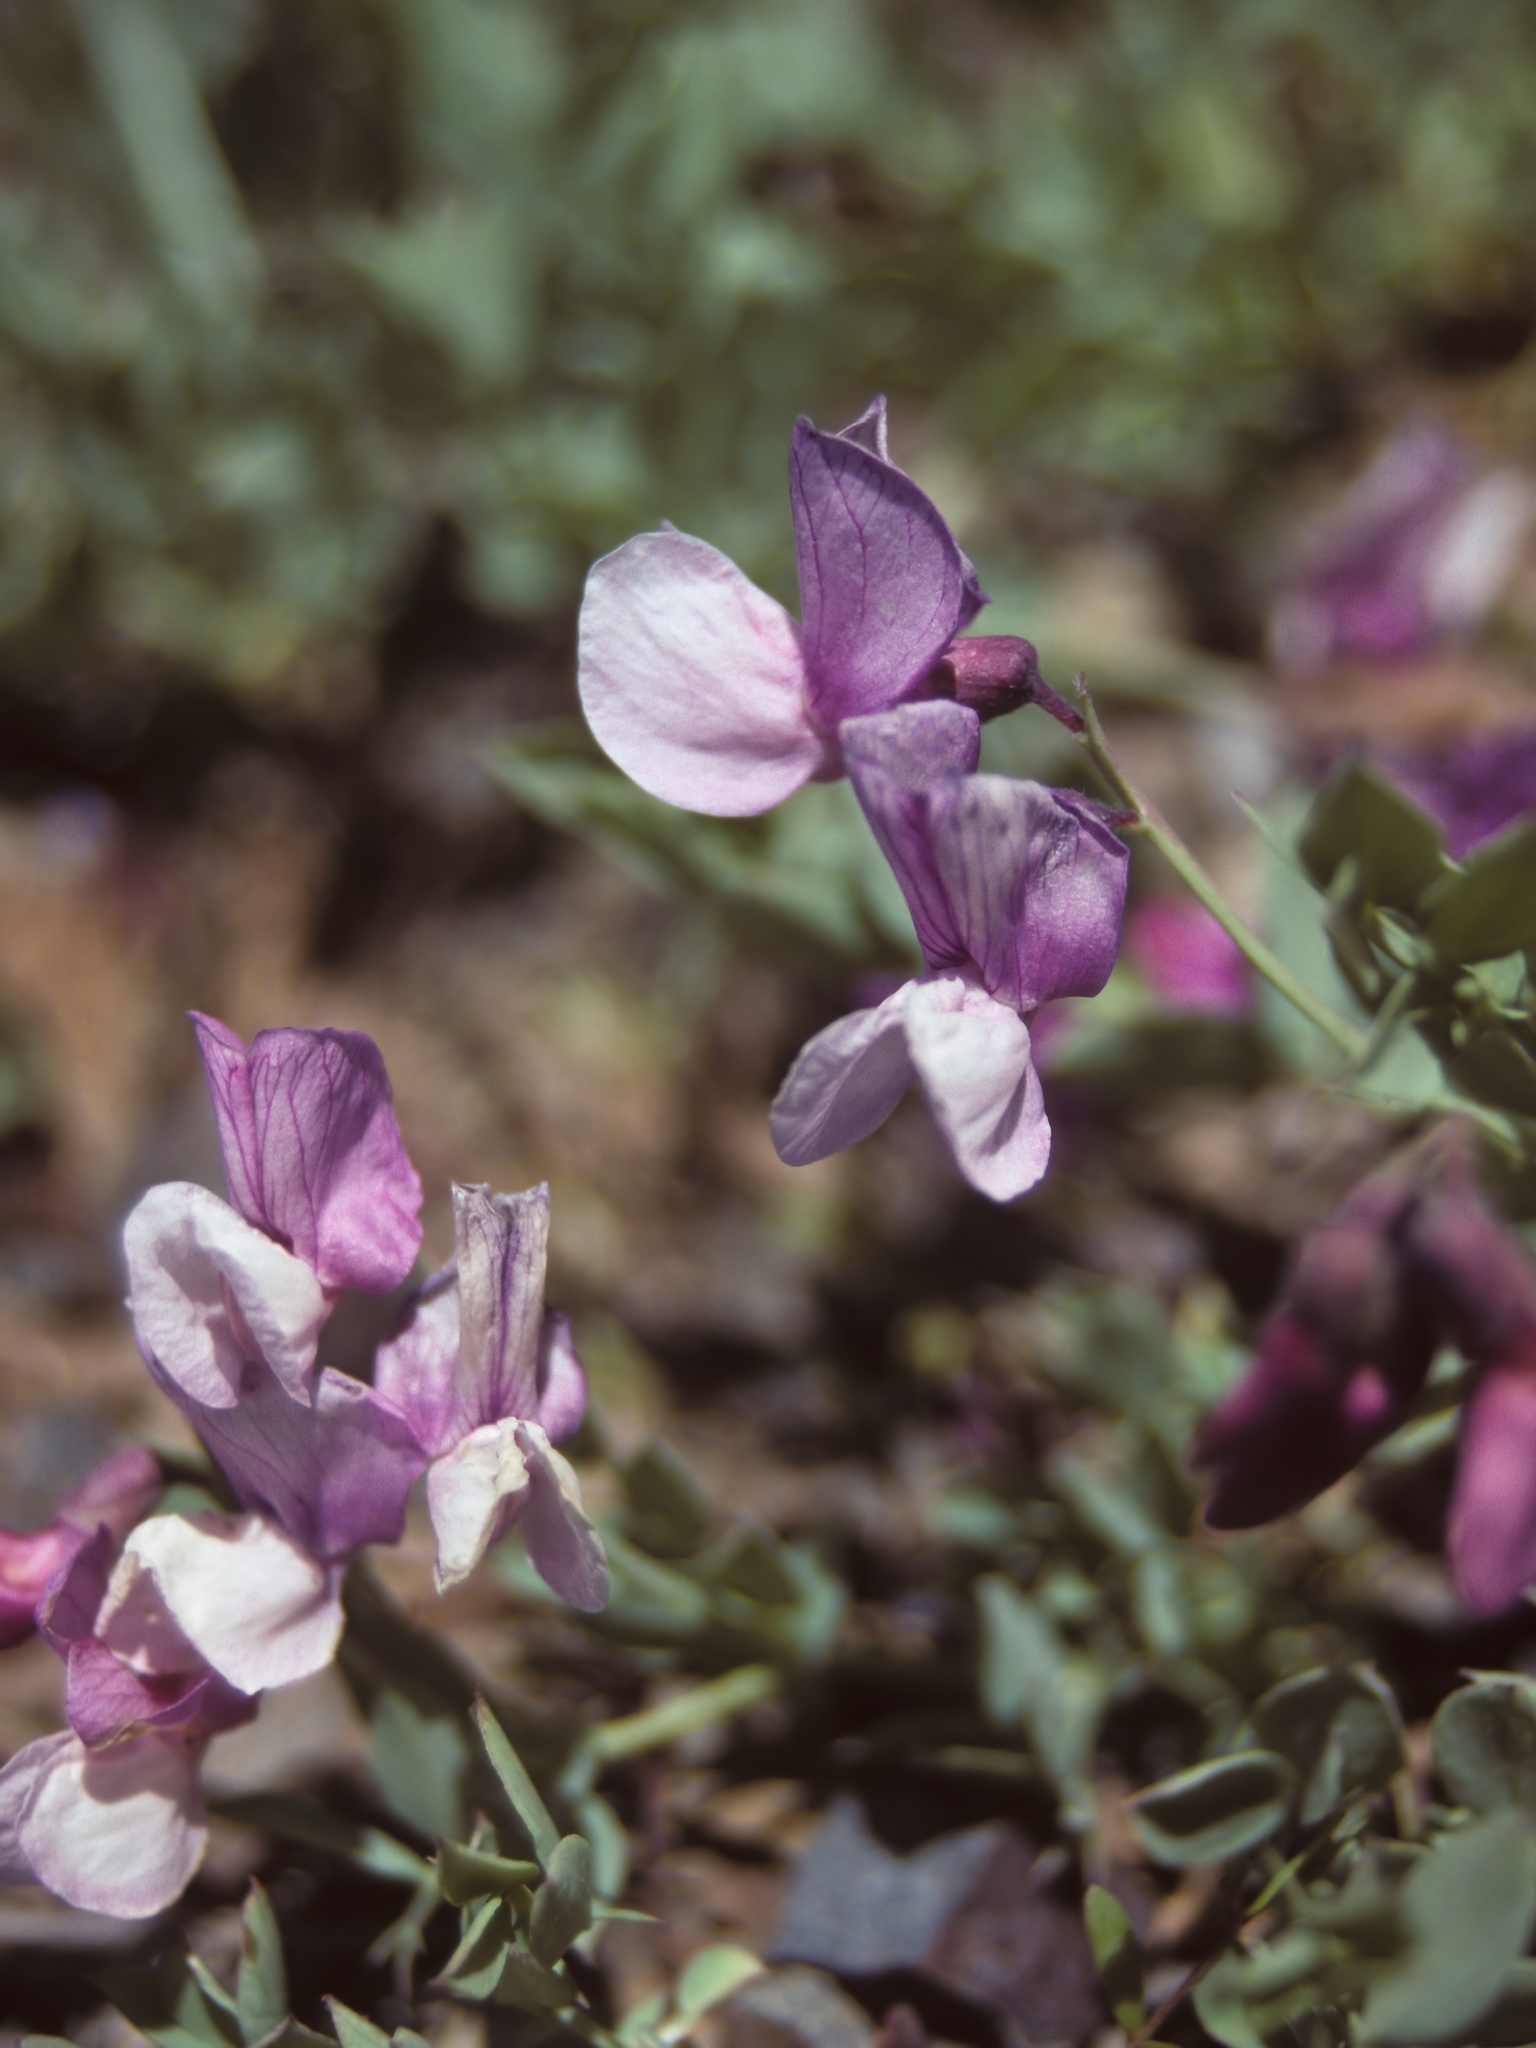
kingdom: Plantae
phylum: Tracheophyta
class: Magnoliopsida
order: Fabales
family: Fabaceae
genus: Lathyrus
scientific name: Lathyrus grimesii
